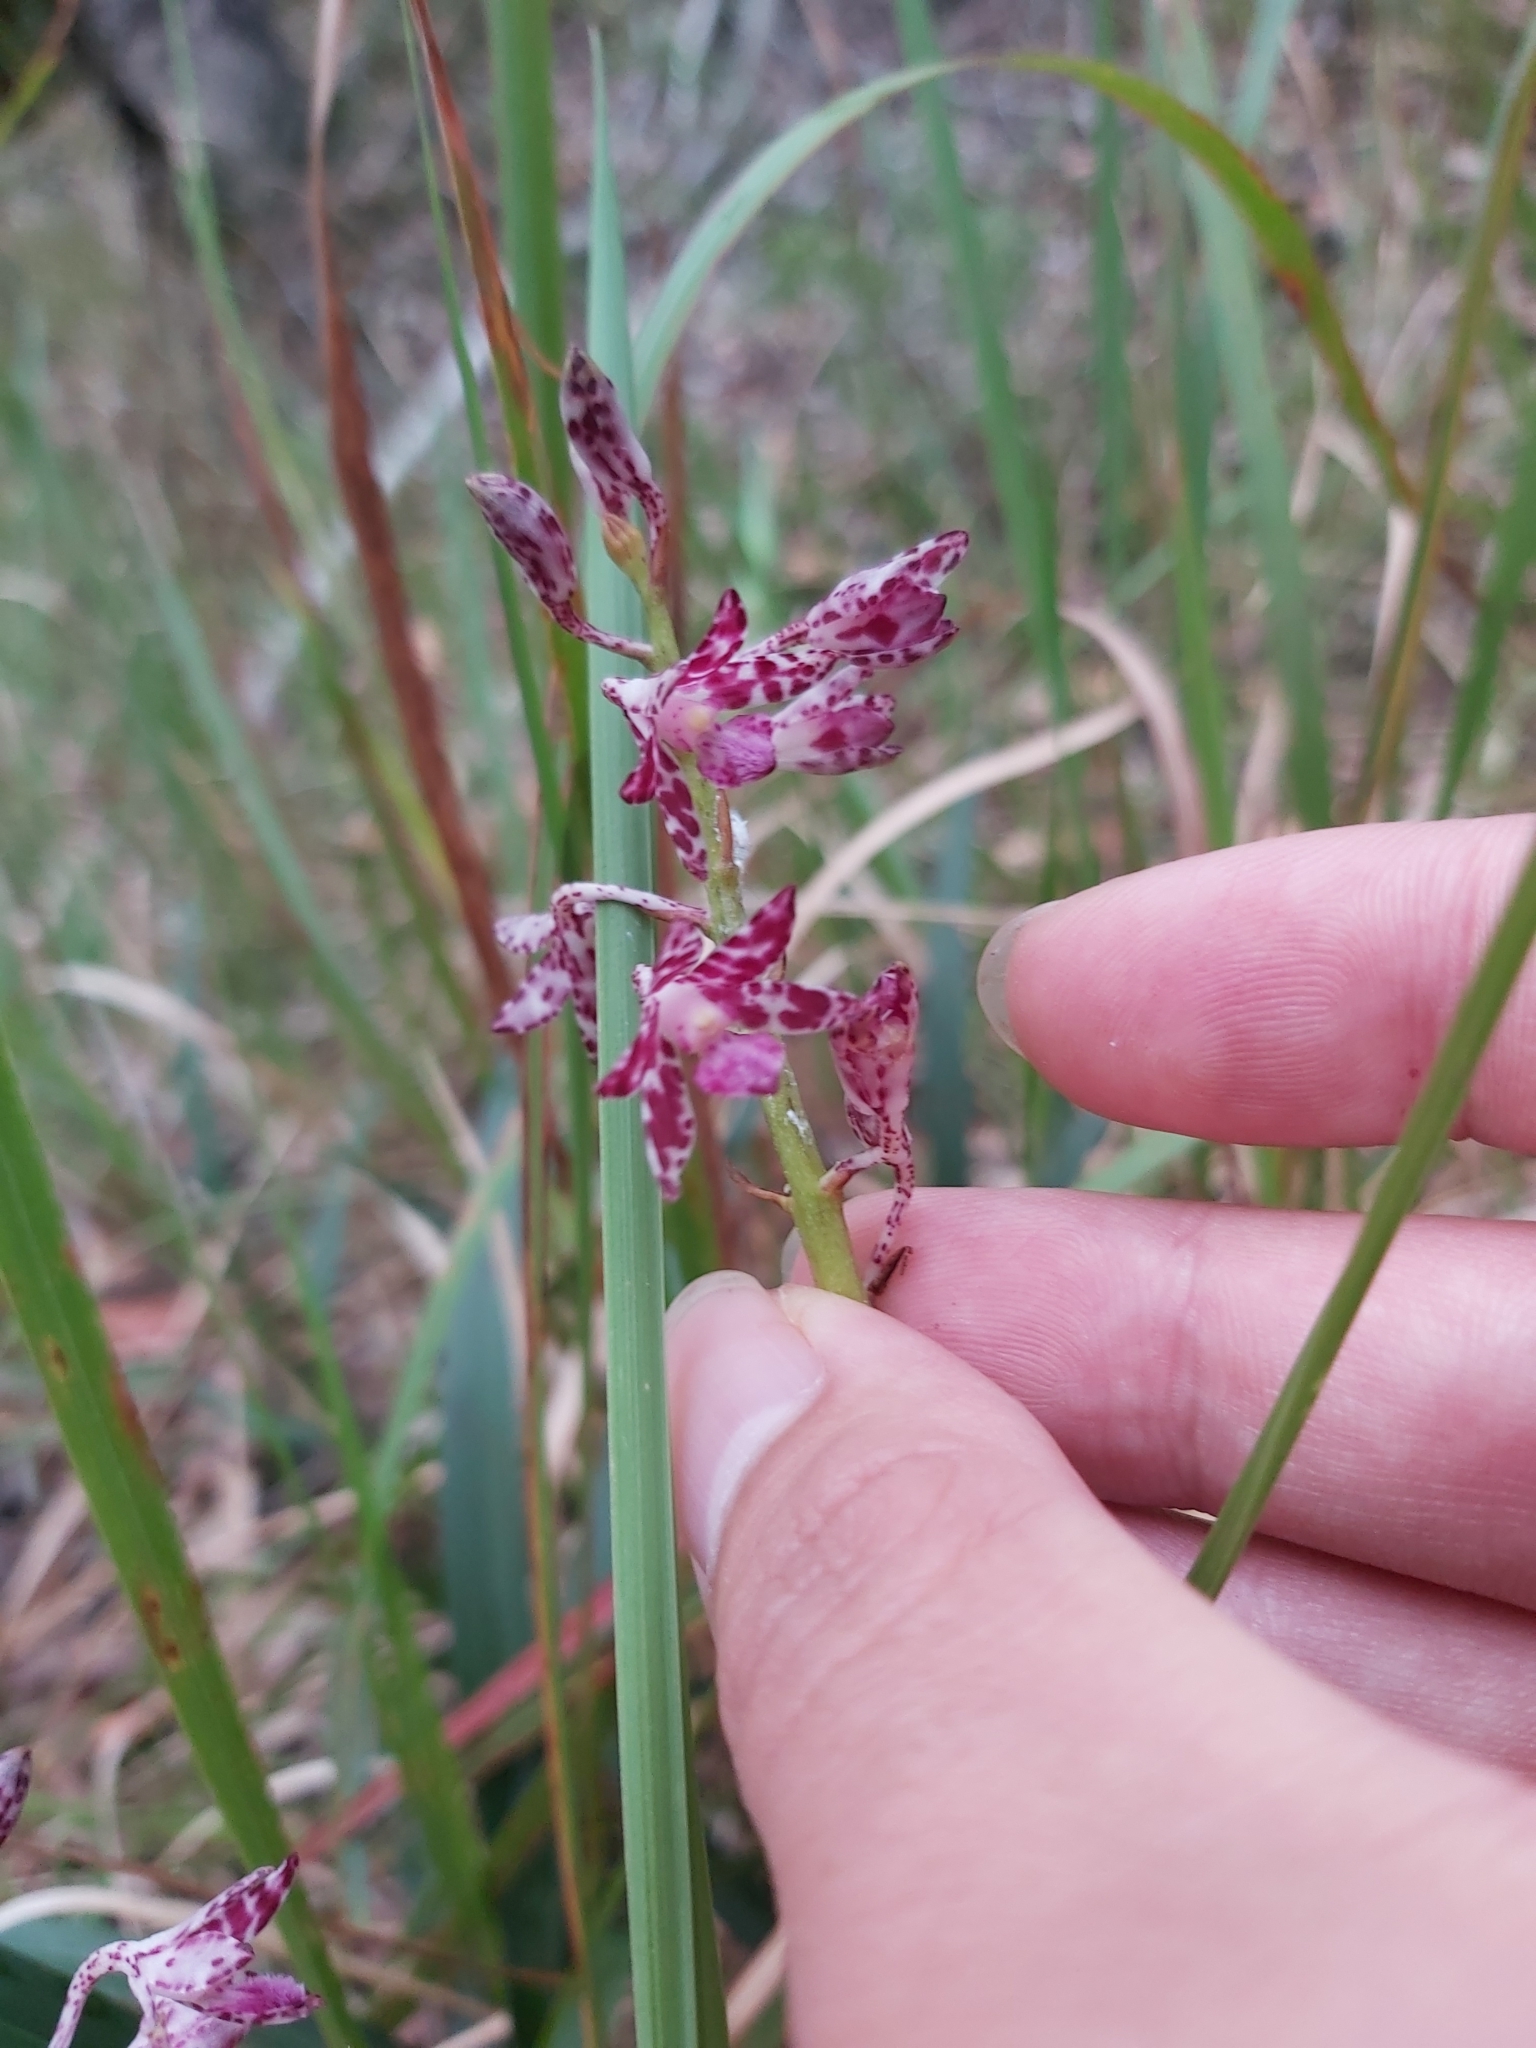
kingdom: Plantae
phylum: Tracheophyta
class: Liliopsida
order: Asparagales
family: Orchidaceae
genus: Dipodium
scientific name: Dipodium variegatum
